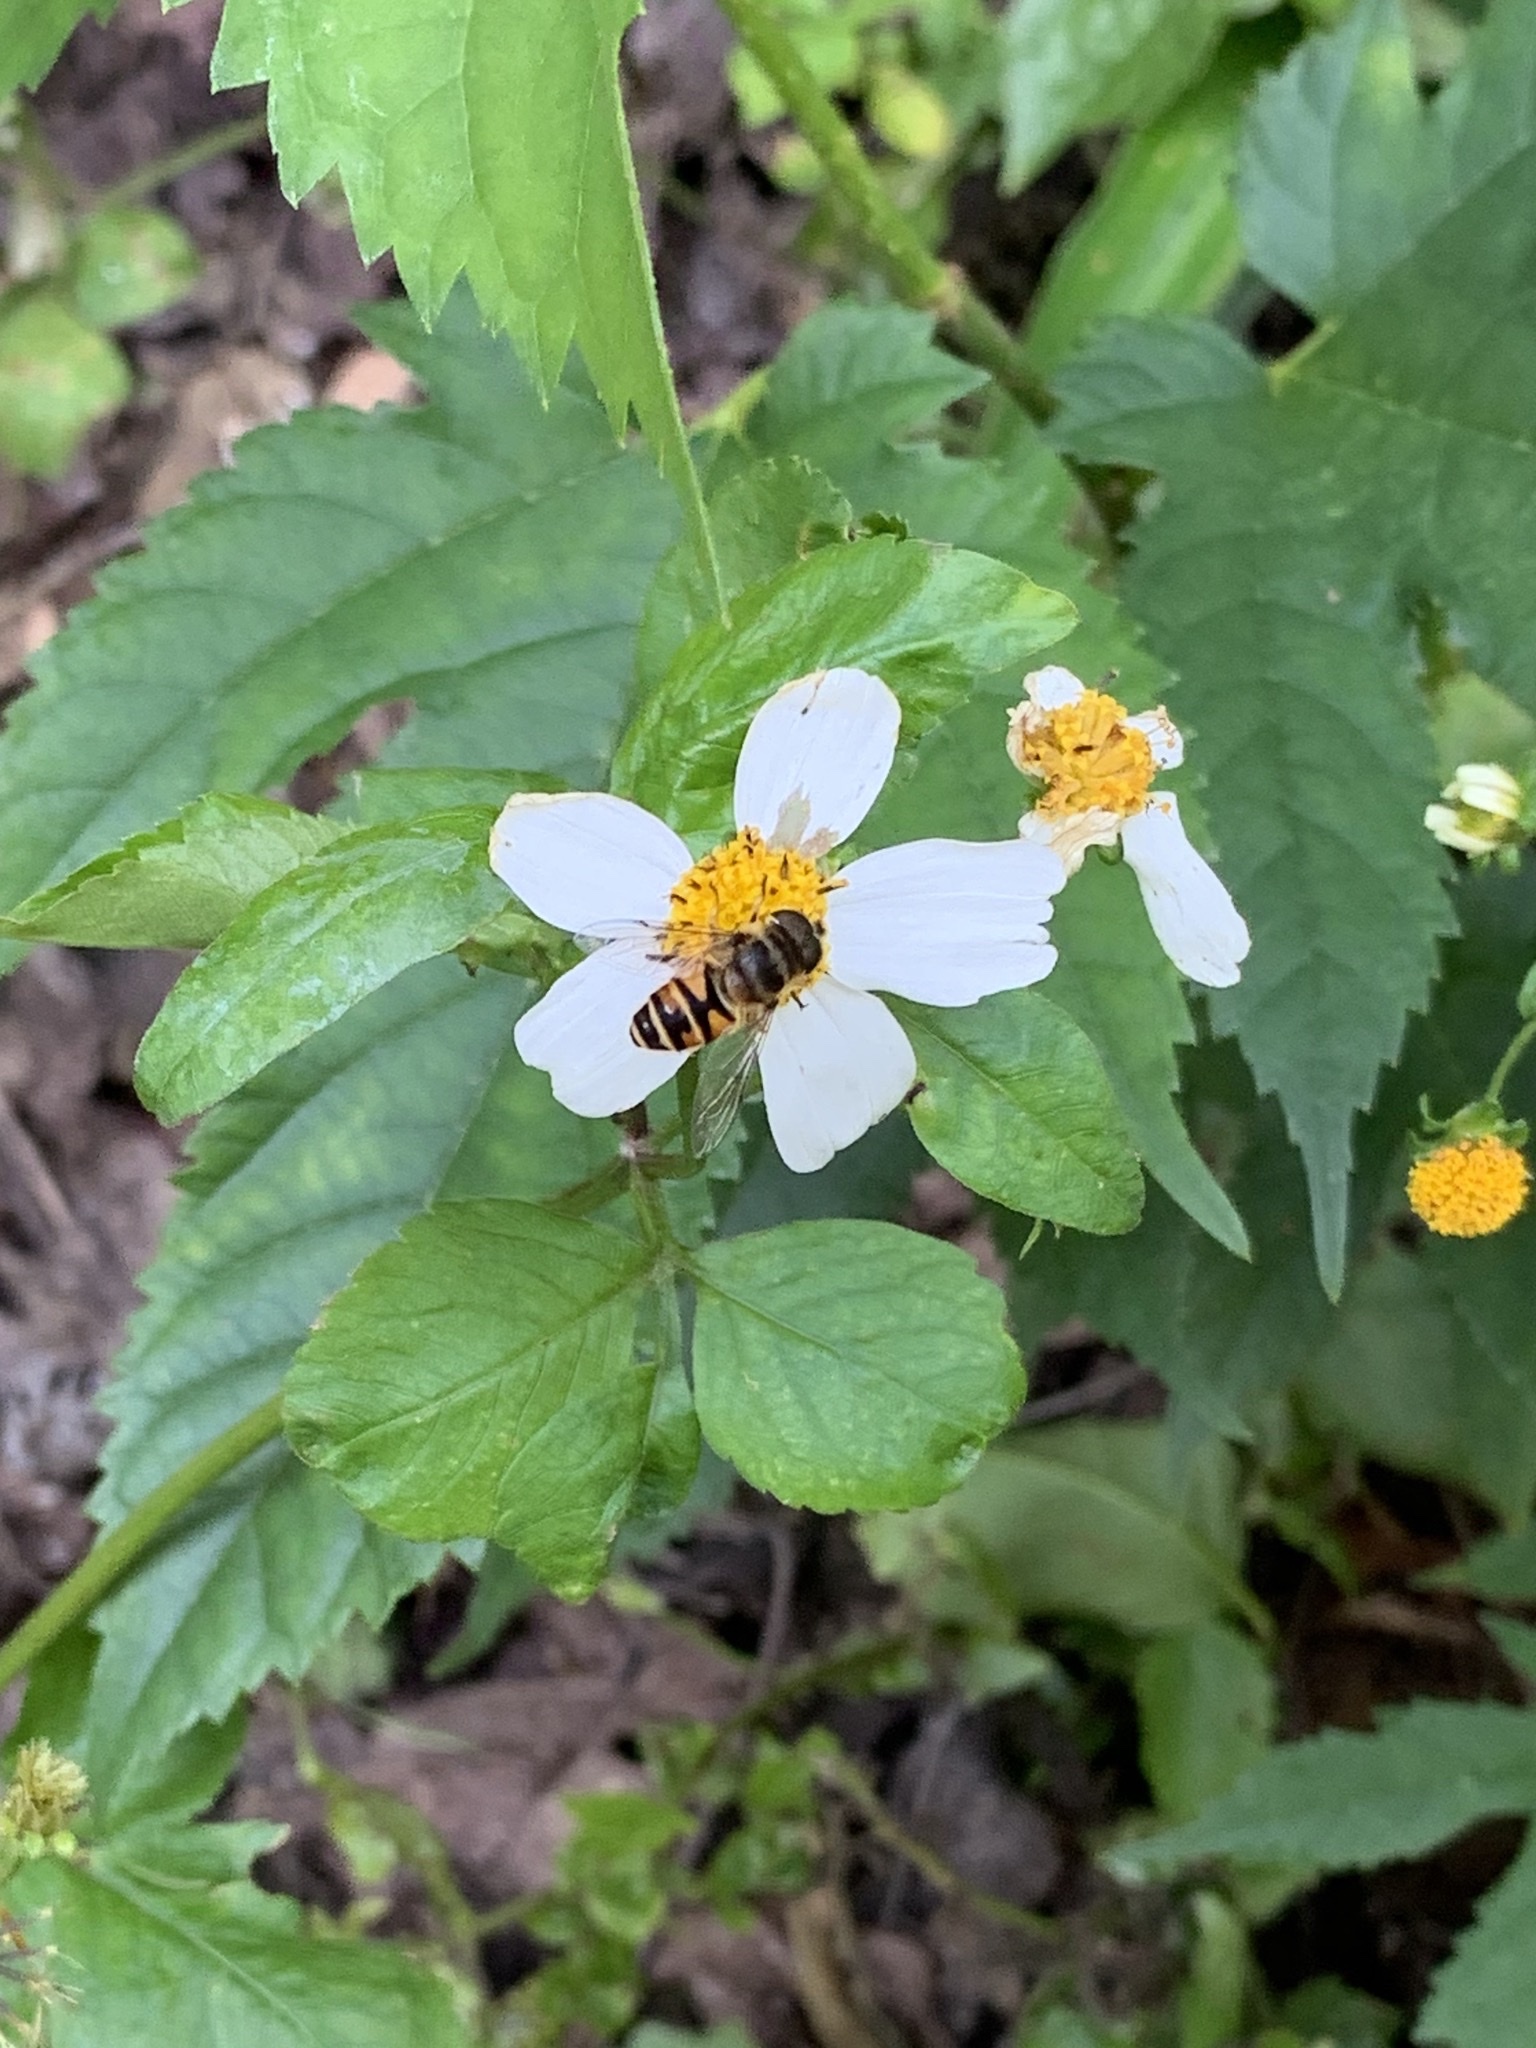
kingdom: Animalia
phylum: Arthropoda
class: Insecta
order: Diptera
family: Syrphidae
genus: Eristalis
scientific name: Eristalis cerealis
